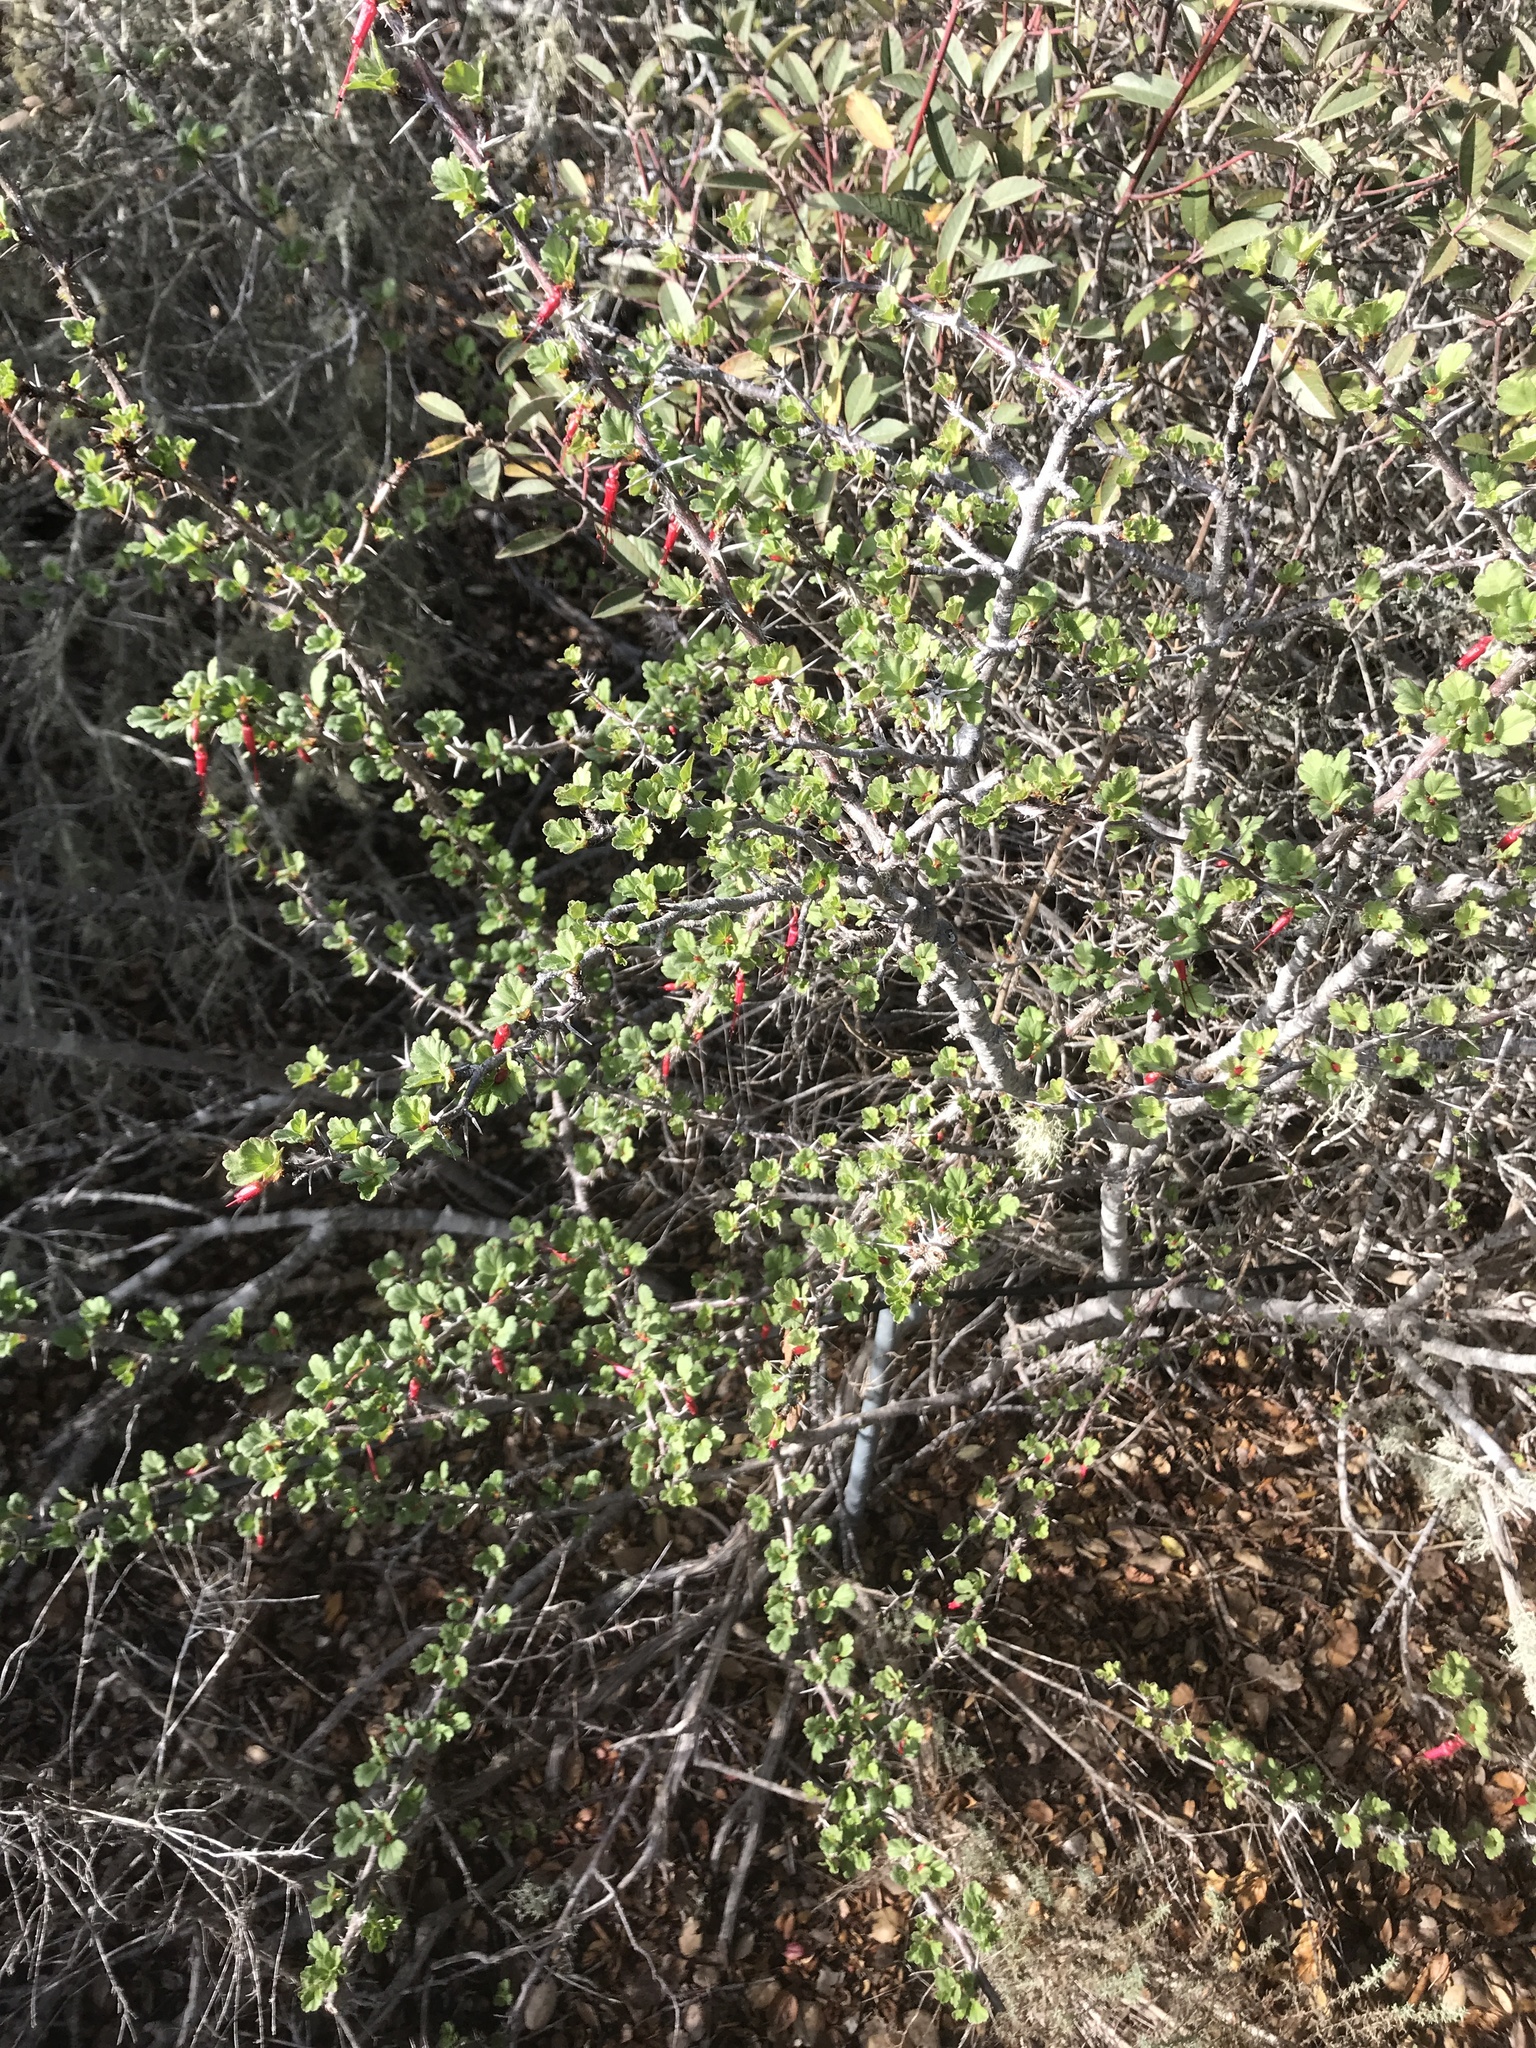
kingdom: Plantae
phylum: Tracheophyta
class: Magnoliopsida
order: Saxifragales
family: Grossulariaceae
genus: Ribes
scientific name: Ribes speciosum
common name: Fuchsia-flower gooseberry
